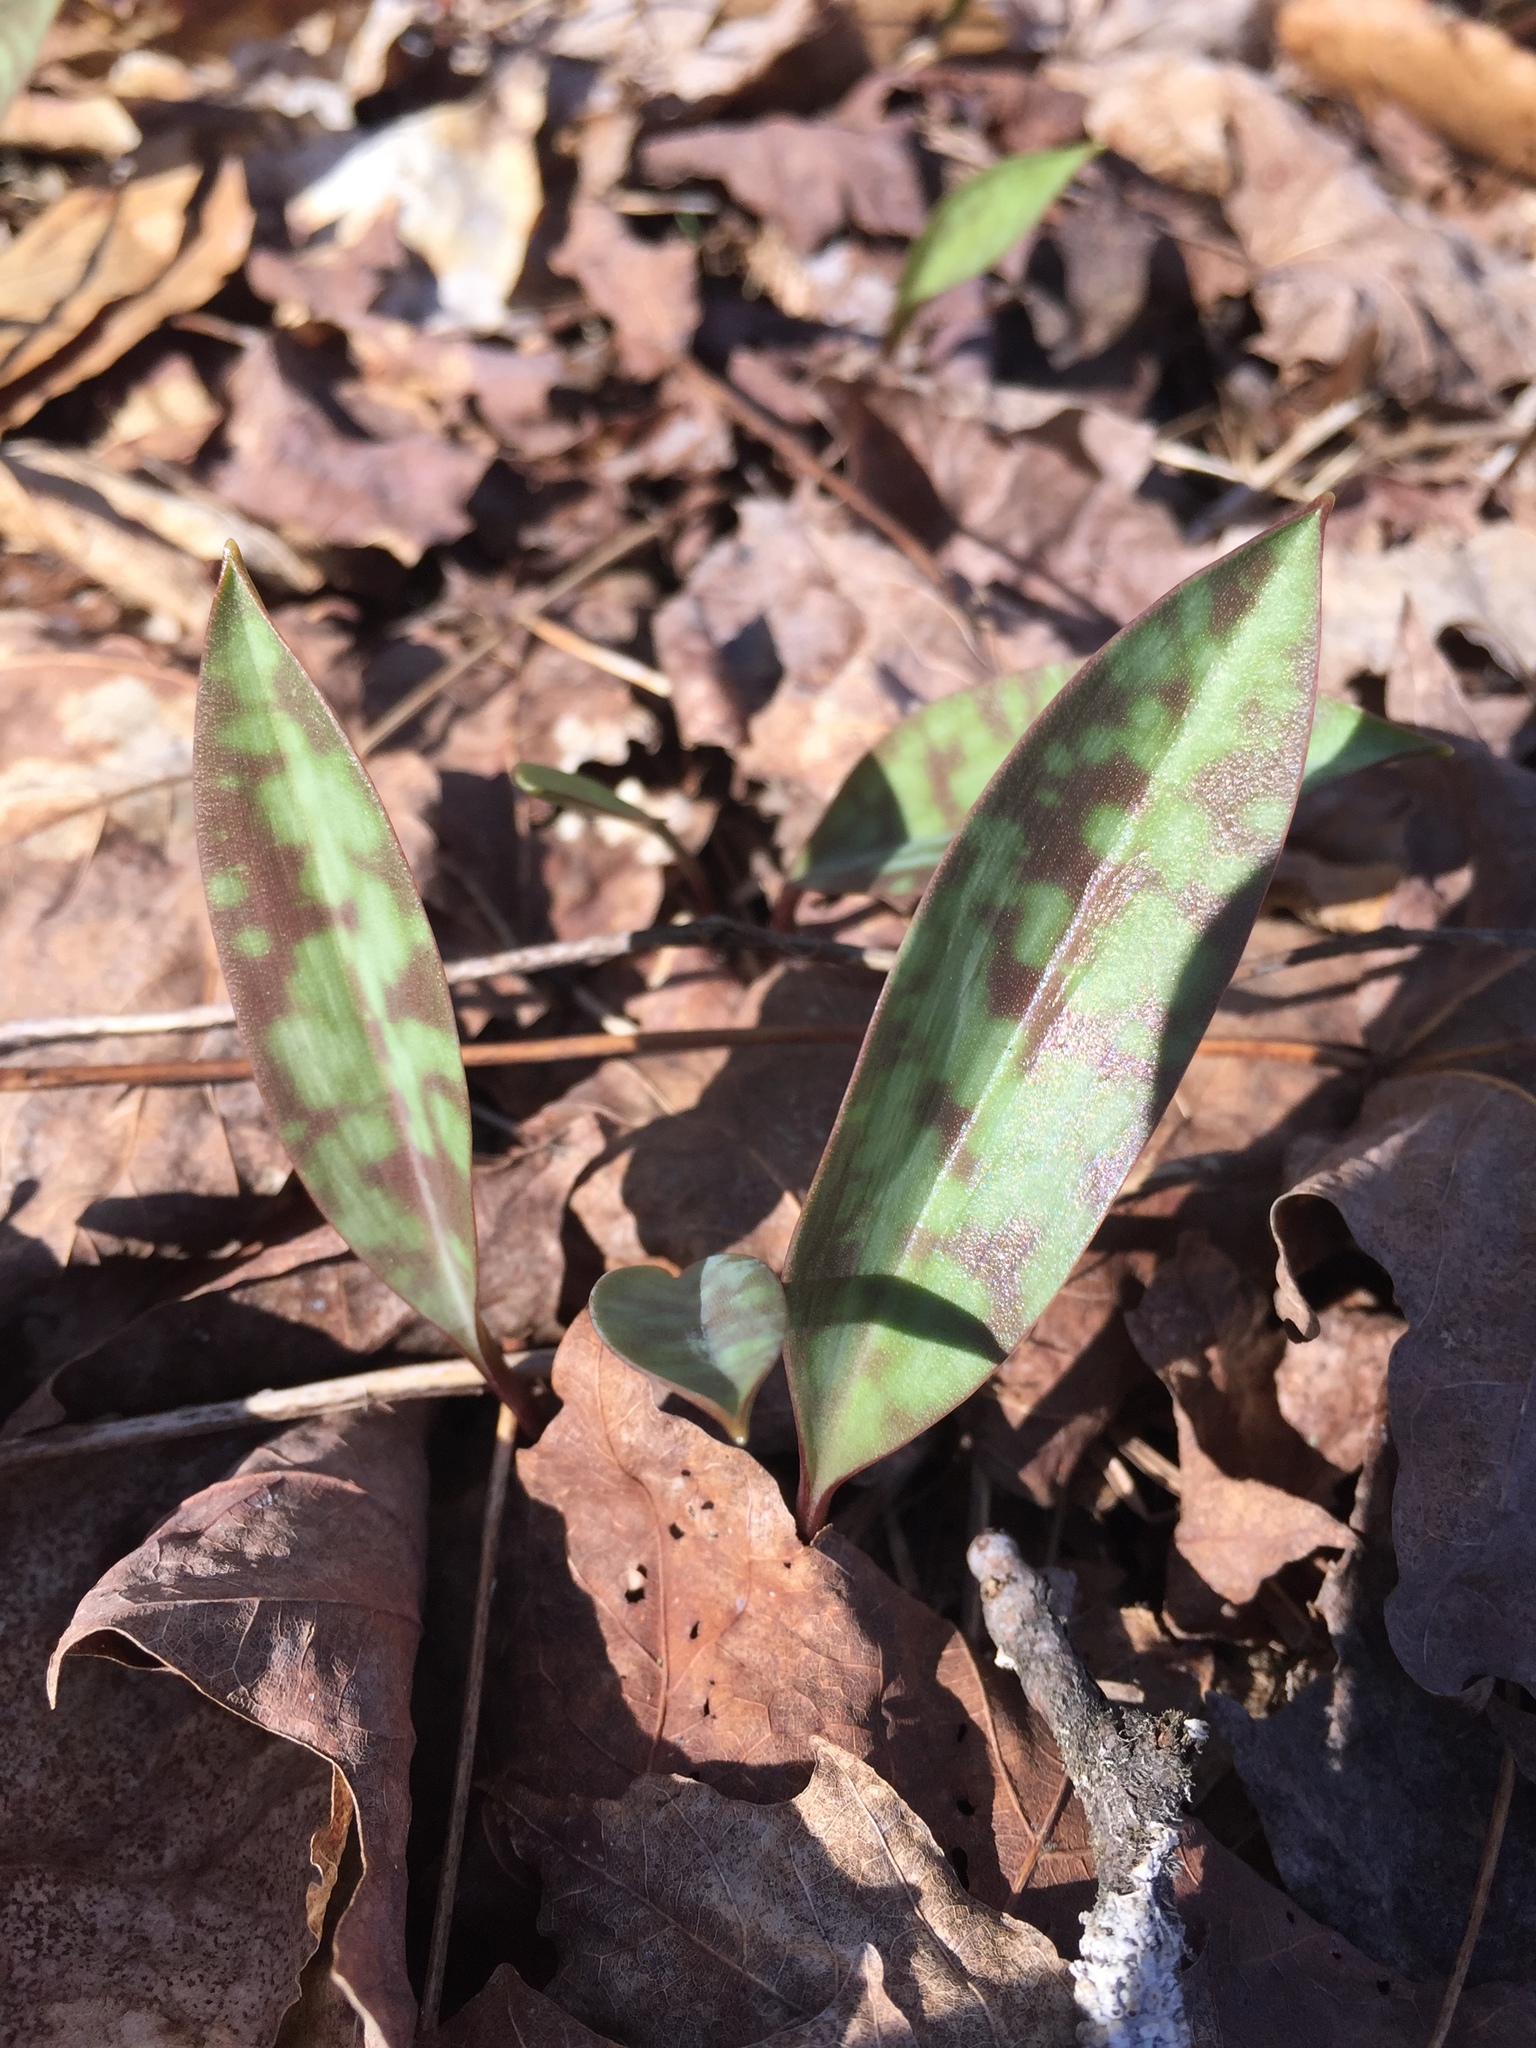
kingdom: Plantae
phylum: Tracheophyta
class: Liliopsida
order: Liliales
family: Liliaceae
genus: Erythronium
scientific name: Erythronium
